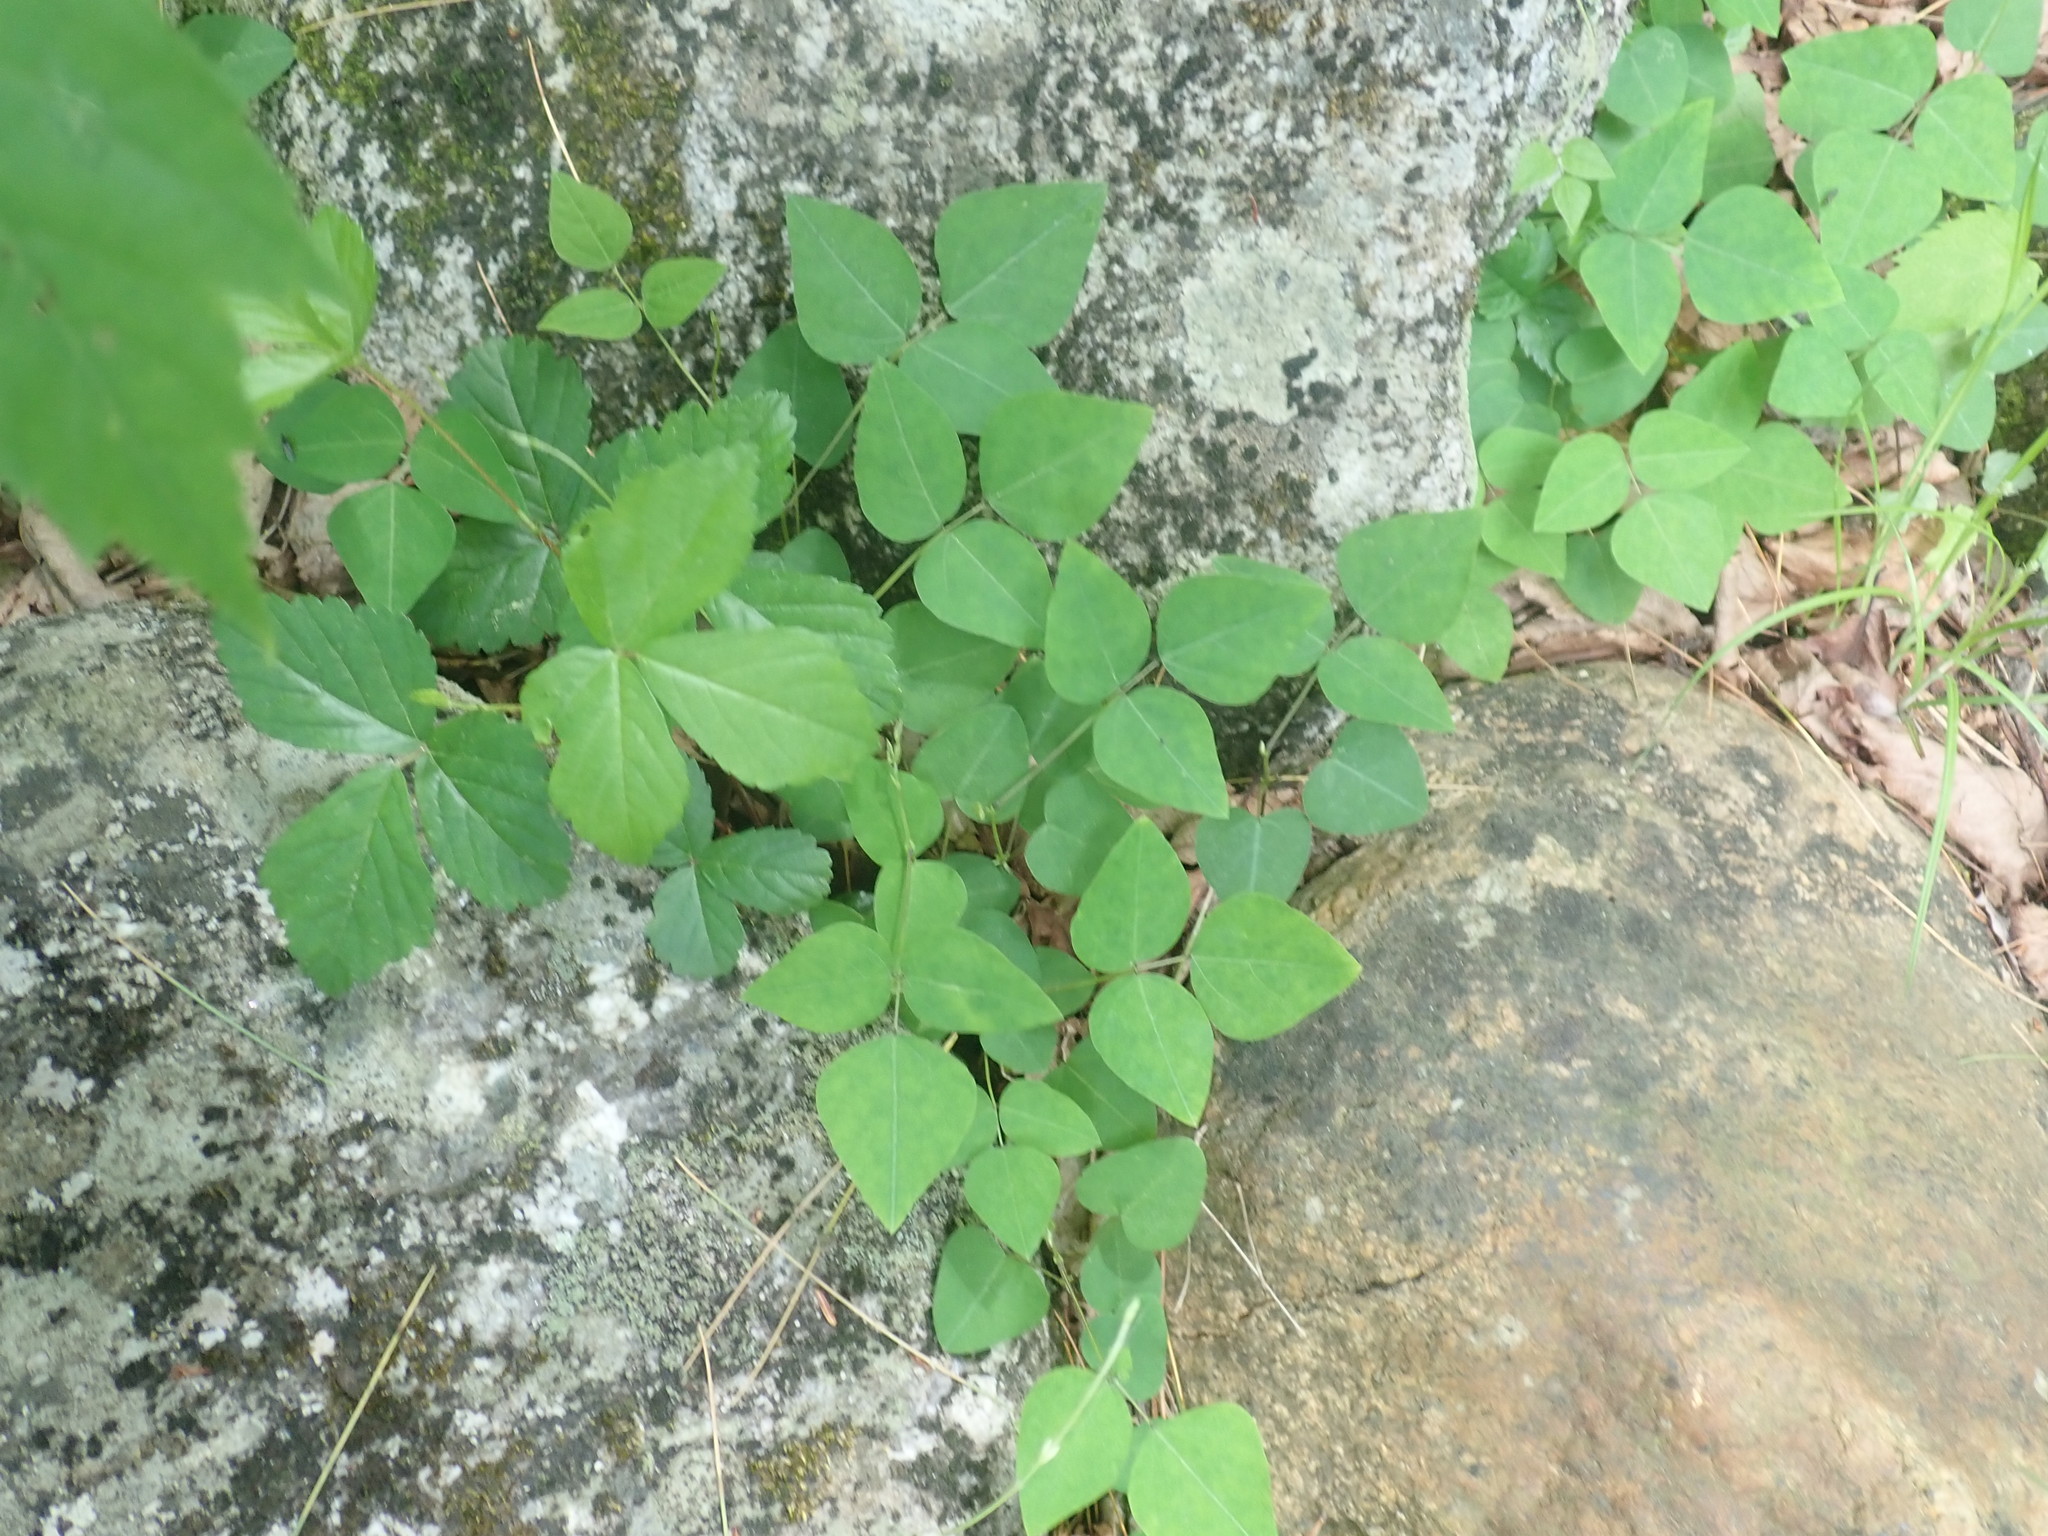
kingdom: Plantae
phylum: Tracheophyta
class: Magnoliopsida
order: Fabales
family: Fabaceae
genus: Amphicarpaea
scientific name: Amphicarpaea bracteata
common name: American hog peanut
